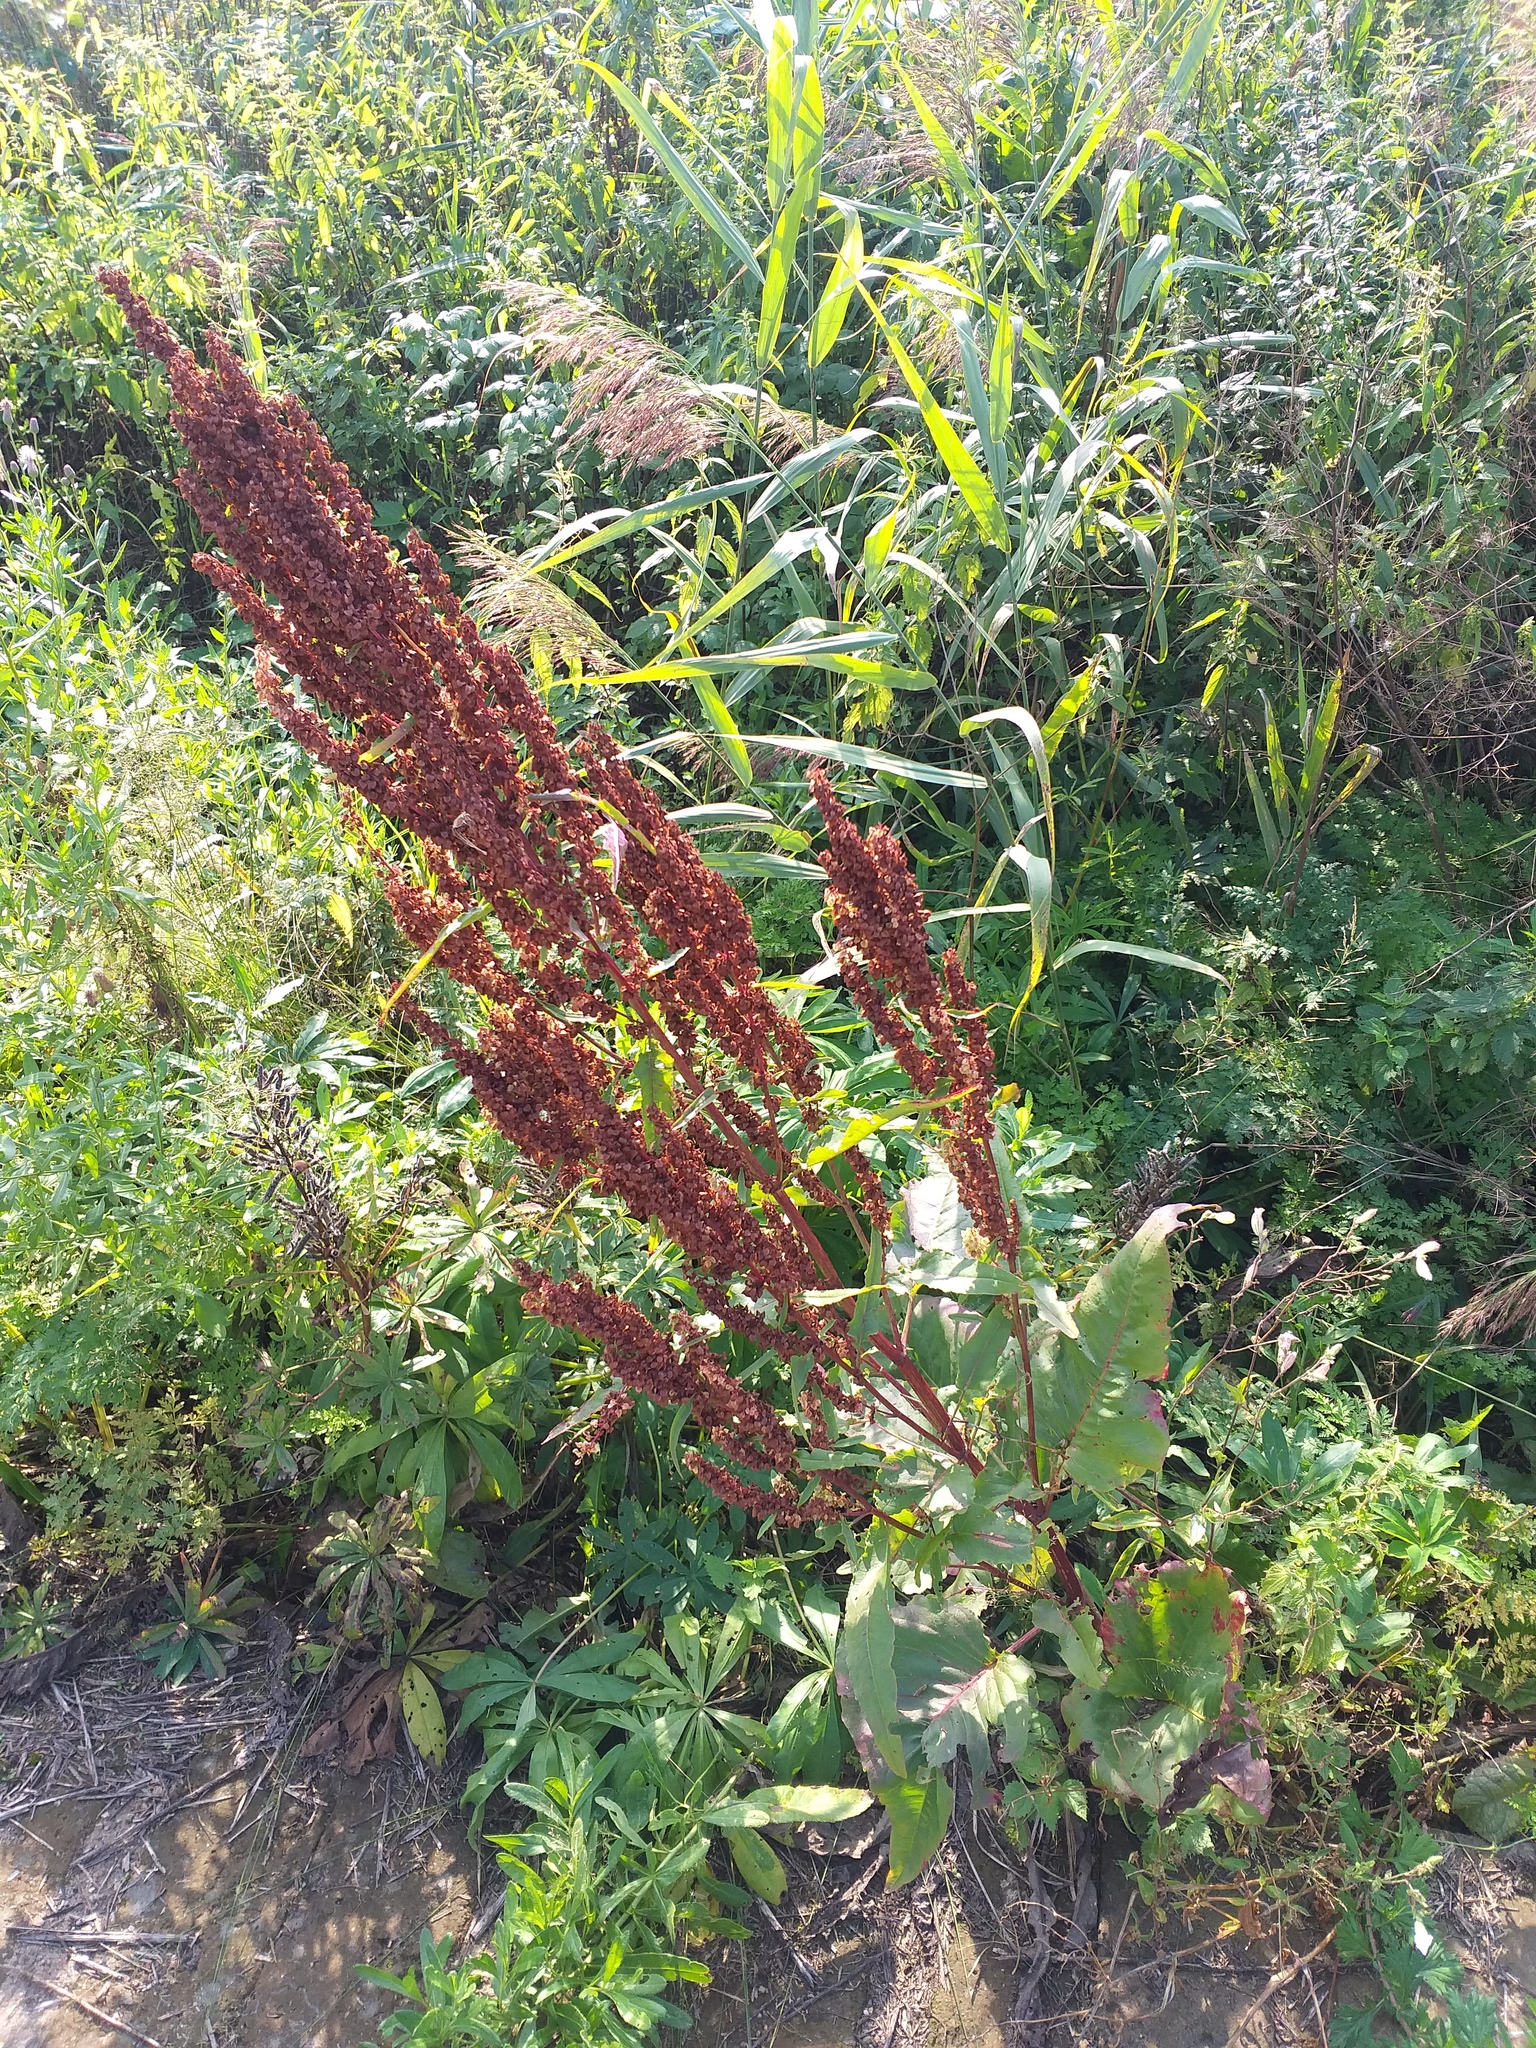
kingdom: Plantae
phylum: Tracheophyta
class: Magnoliopsida
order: Caryophyllales
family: Polygonaceae
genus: Rumex
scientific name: Rumex aquaticus
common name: Scottish dock
